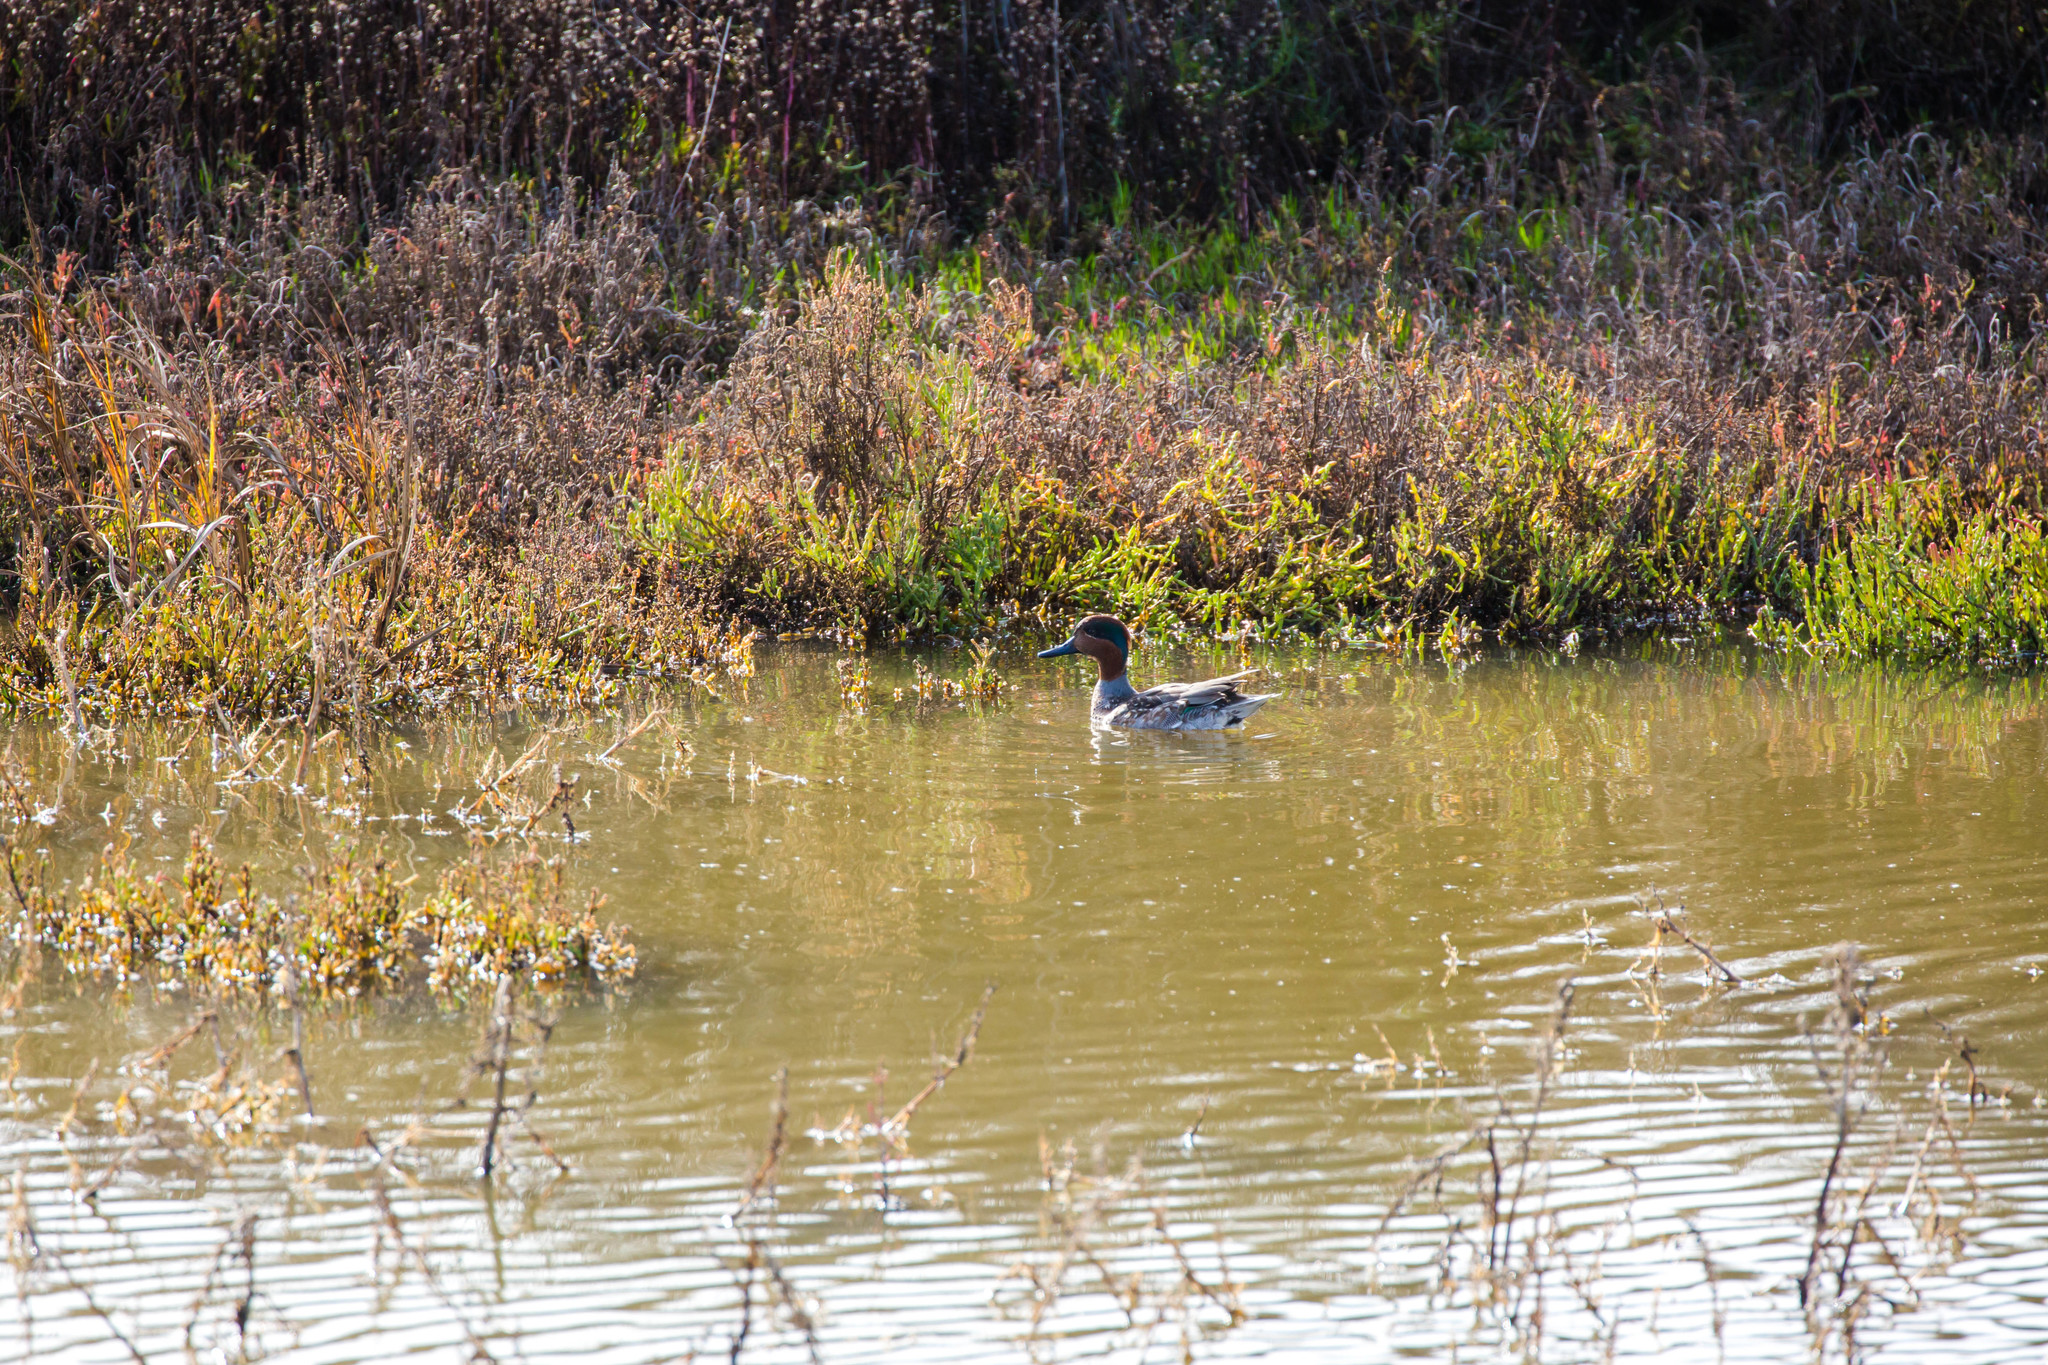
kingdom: Animalia
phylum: Chordata
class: Aves
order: Anseriformes
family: Anatidae
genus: Anas
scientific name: Anas crecca
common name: Eurasian teal
